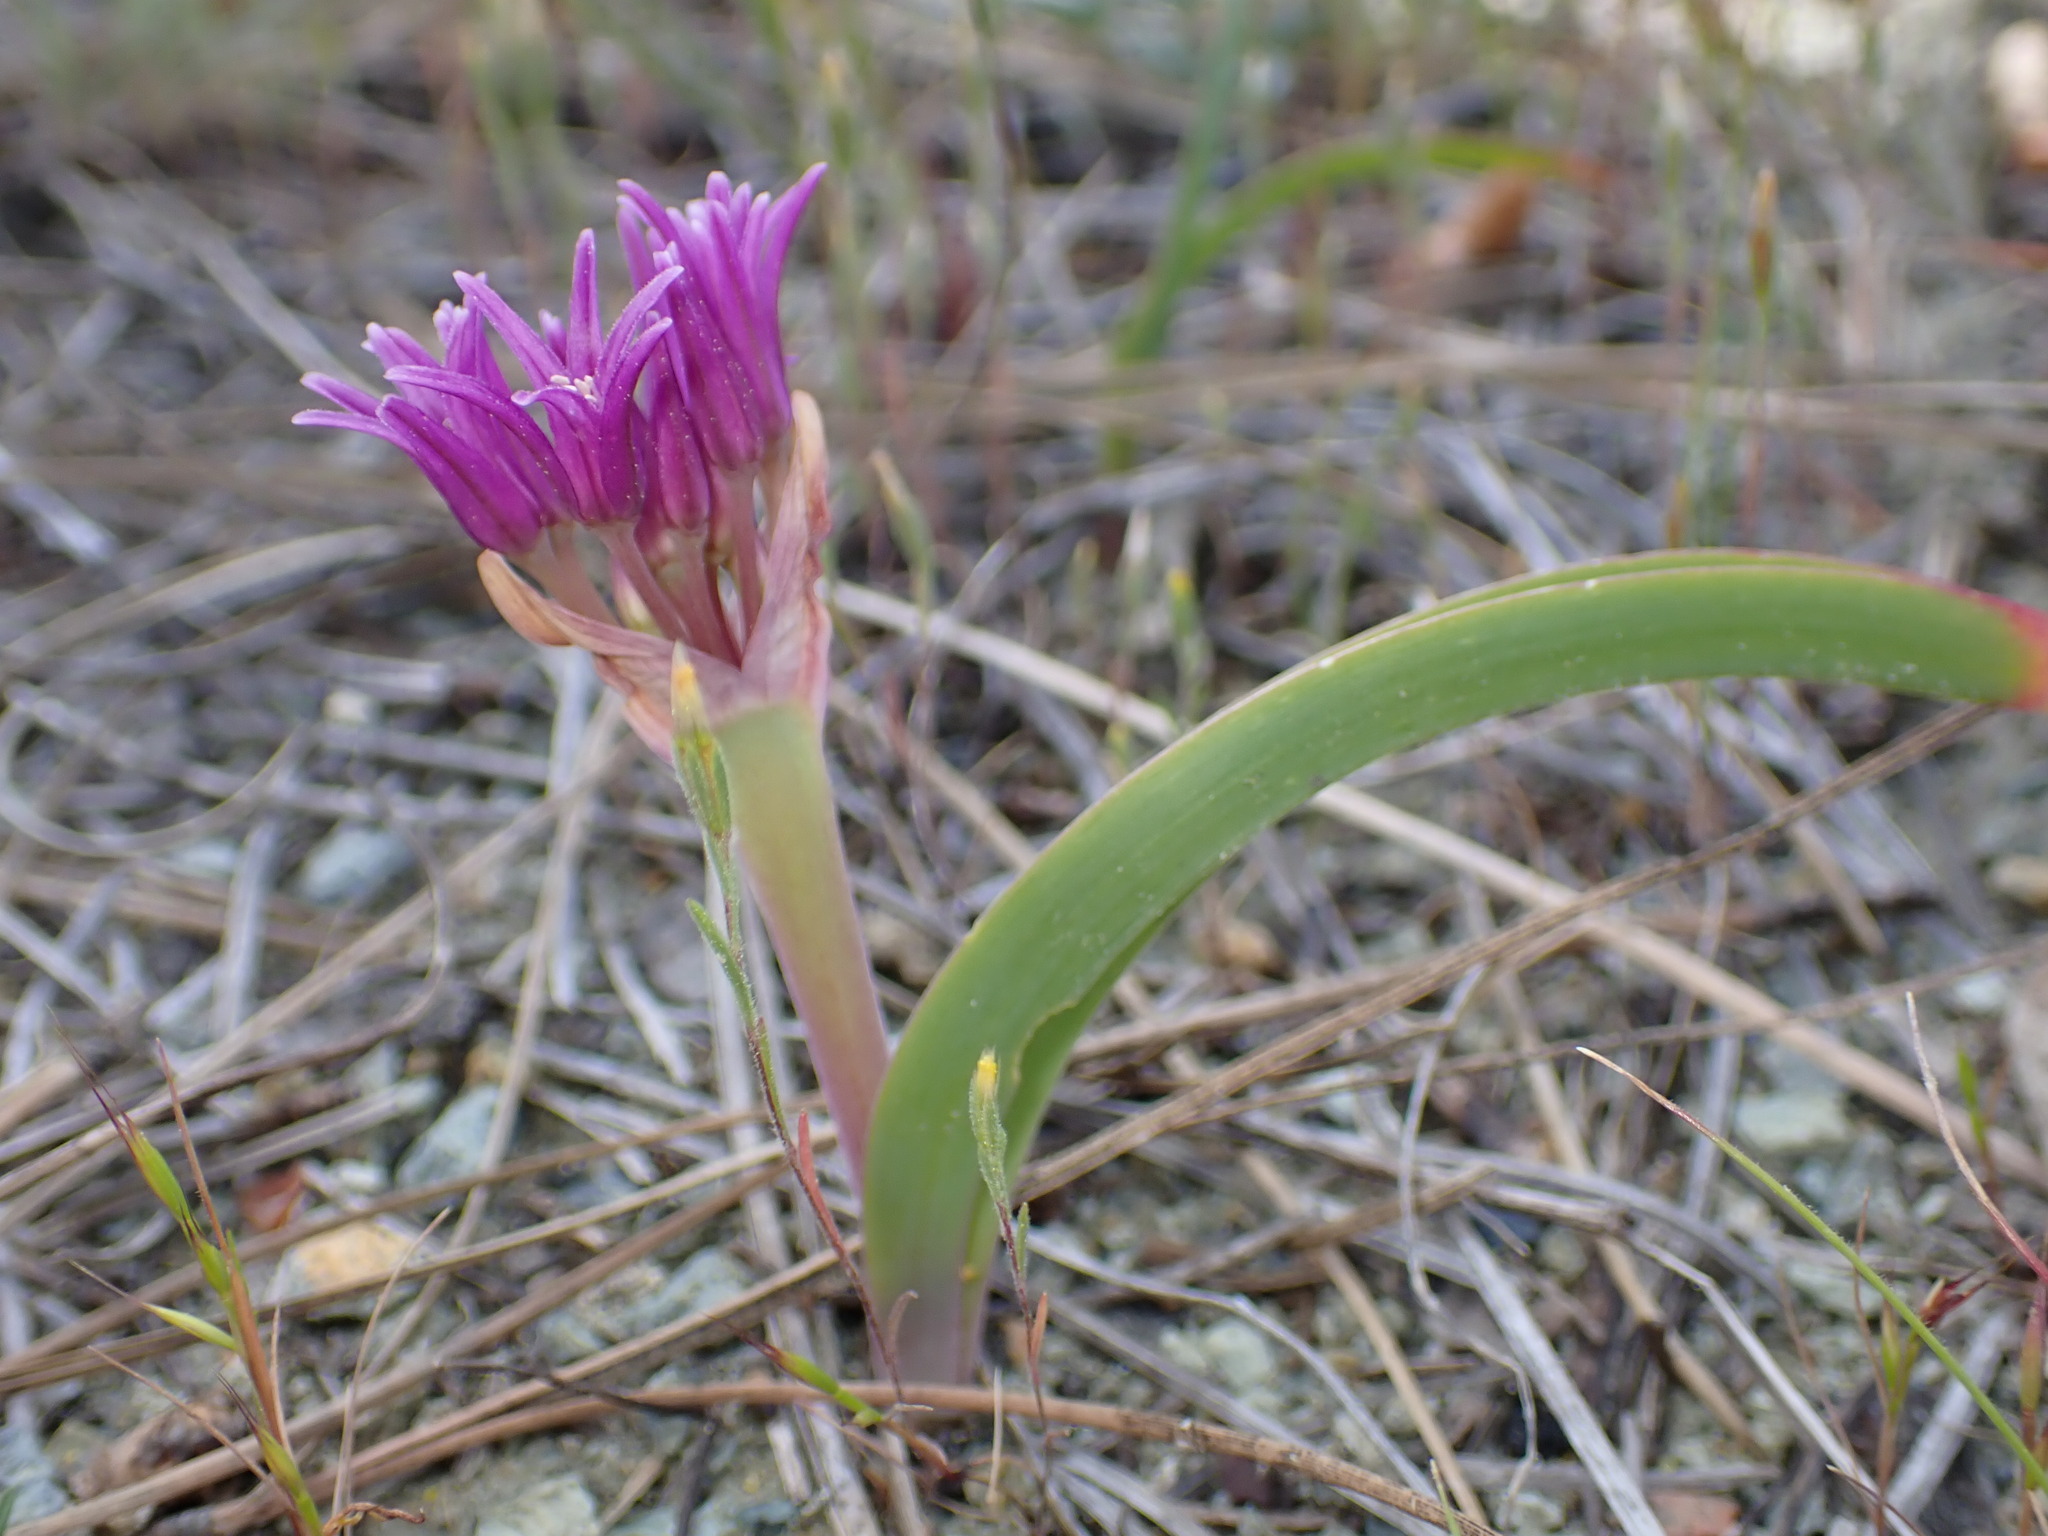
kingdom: Plantae
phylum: Tracheophyta
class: Liliopsida
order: Asparagales
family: Amaryllidaceae
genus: Allium
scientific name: Allium falcifolium
